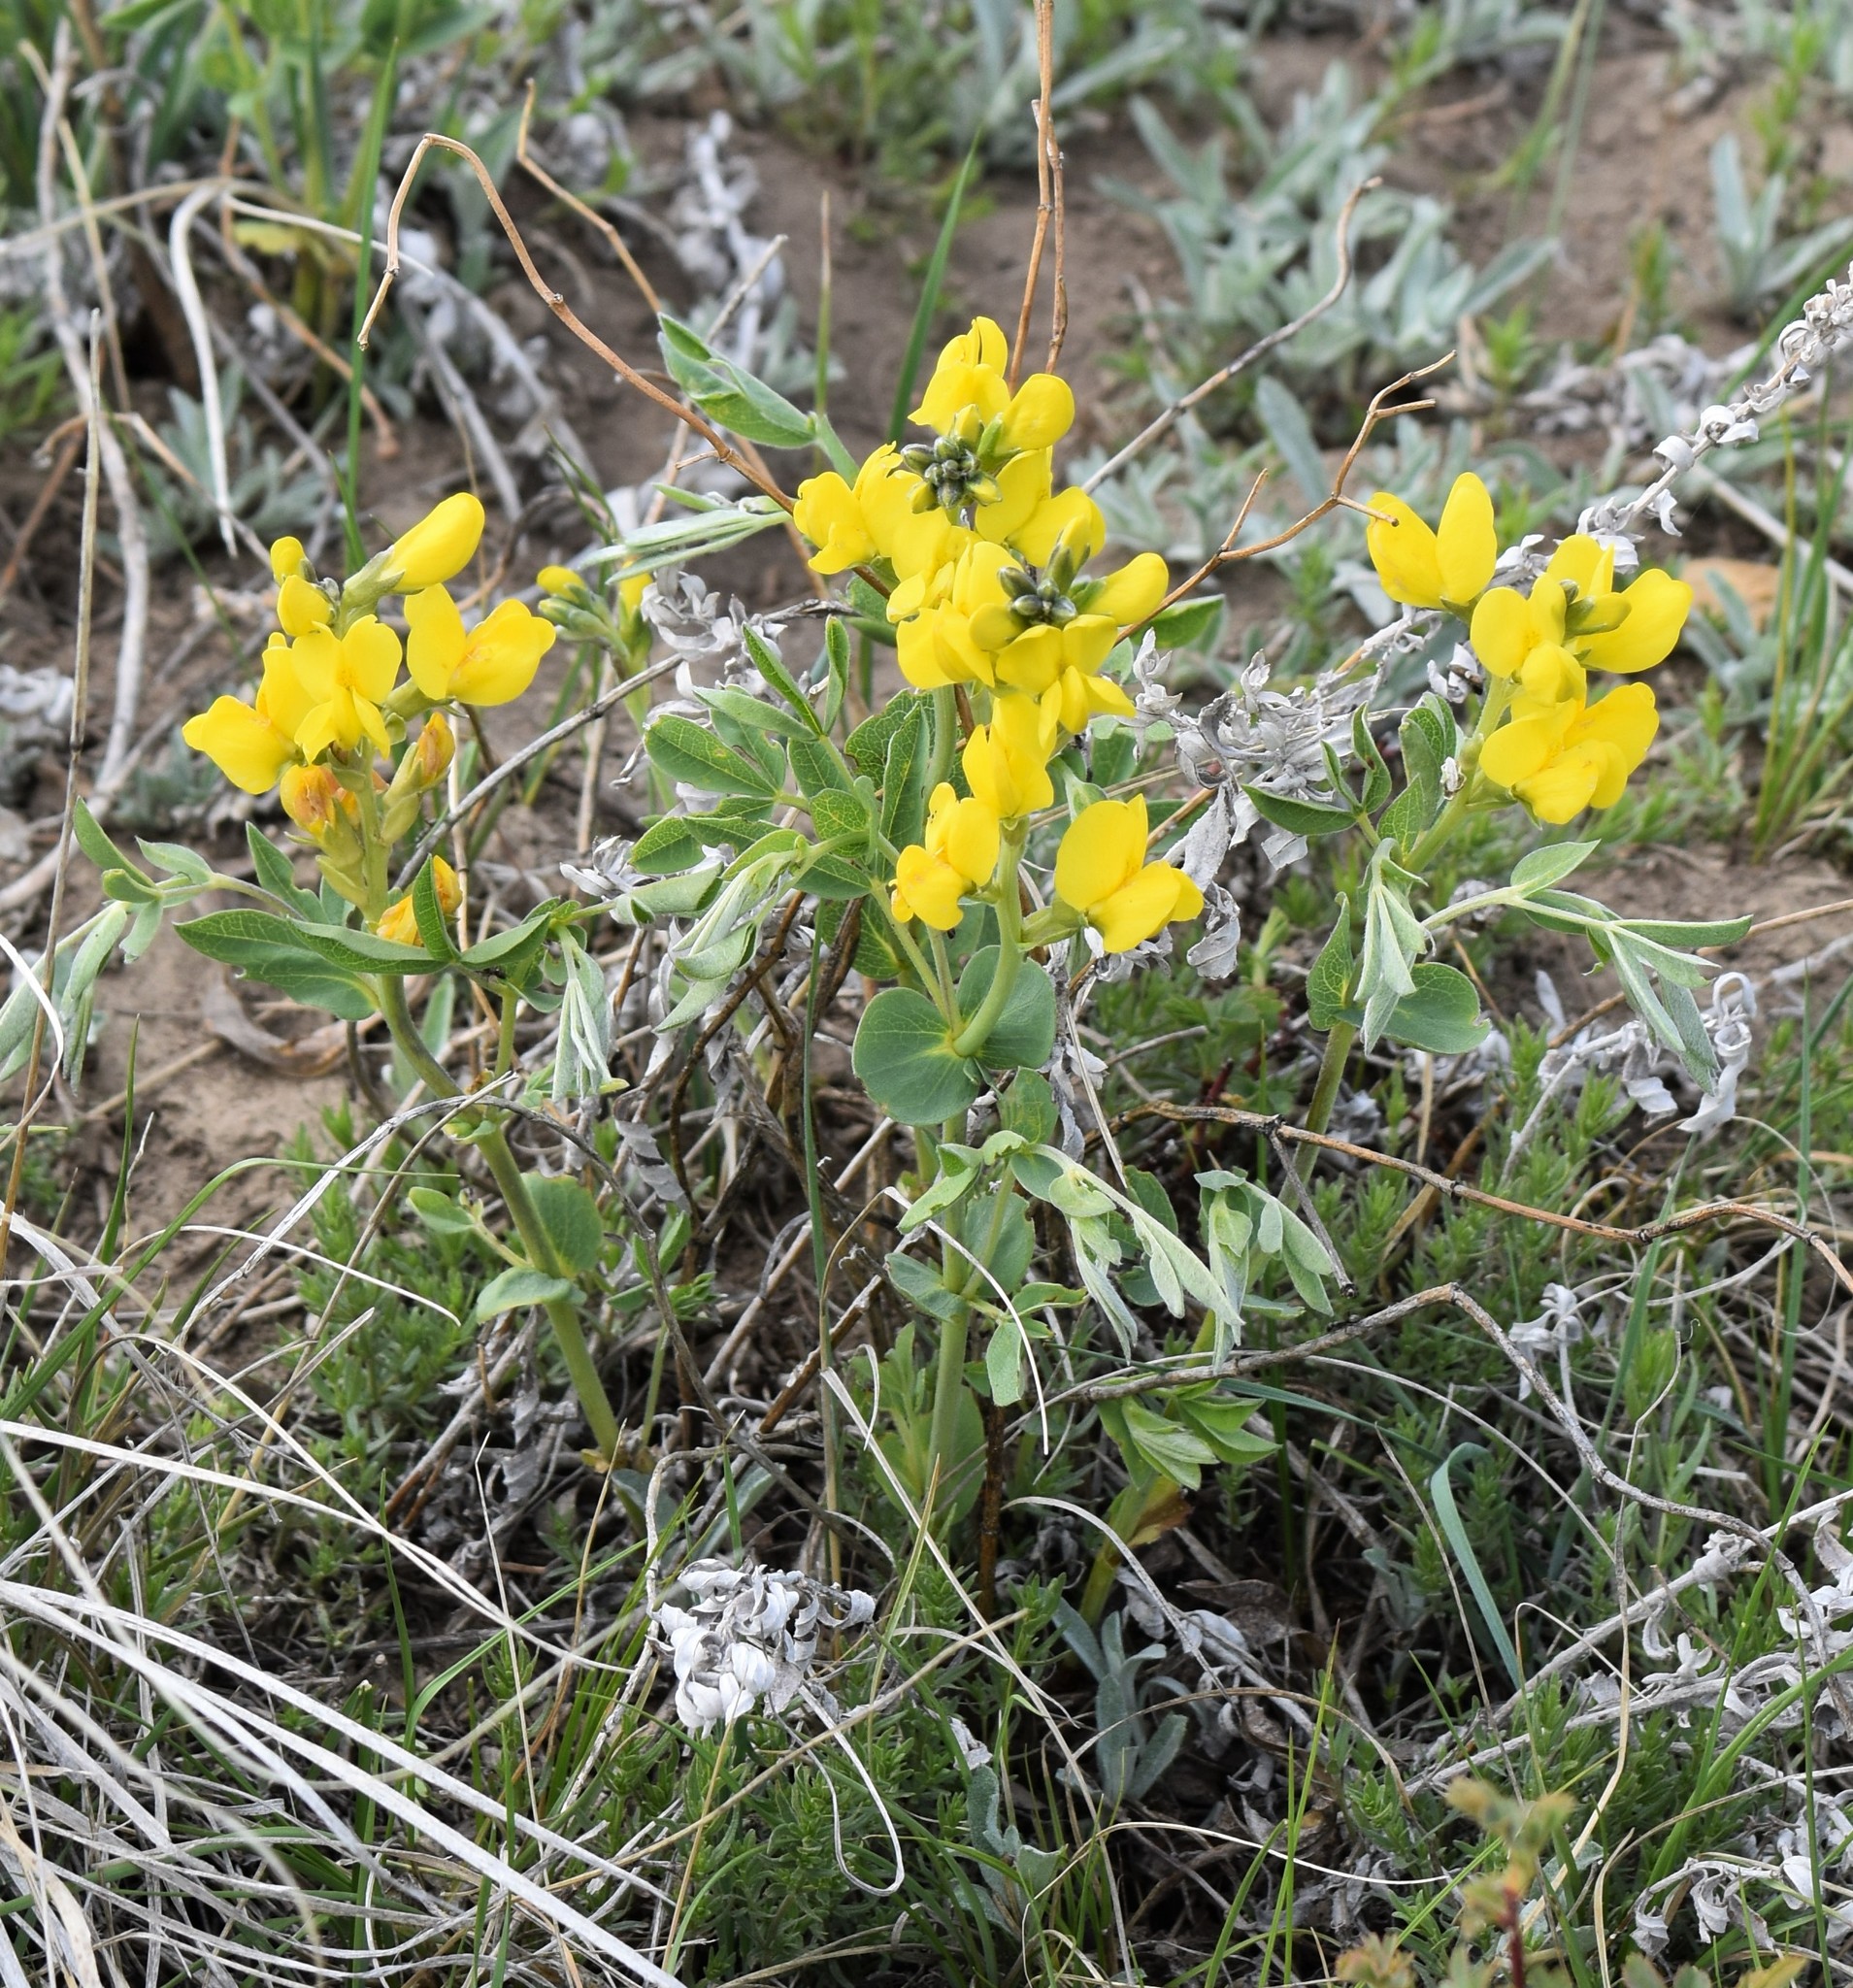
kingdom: Plantae
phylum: Tracheophyta
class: Magnoliopsida
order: Fabales
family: Fabaceae
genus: Thermopsis
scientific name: Thermopsis rhombifolia
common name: Circle-pod-pea
